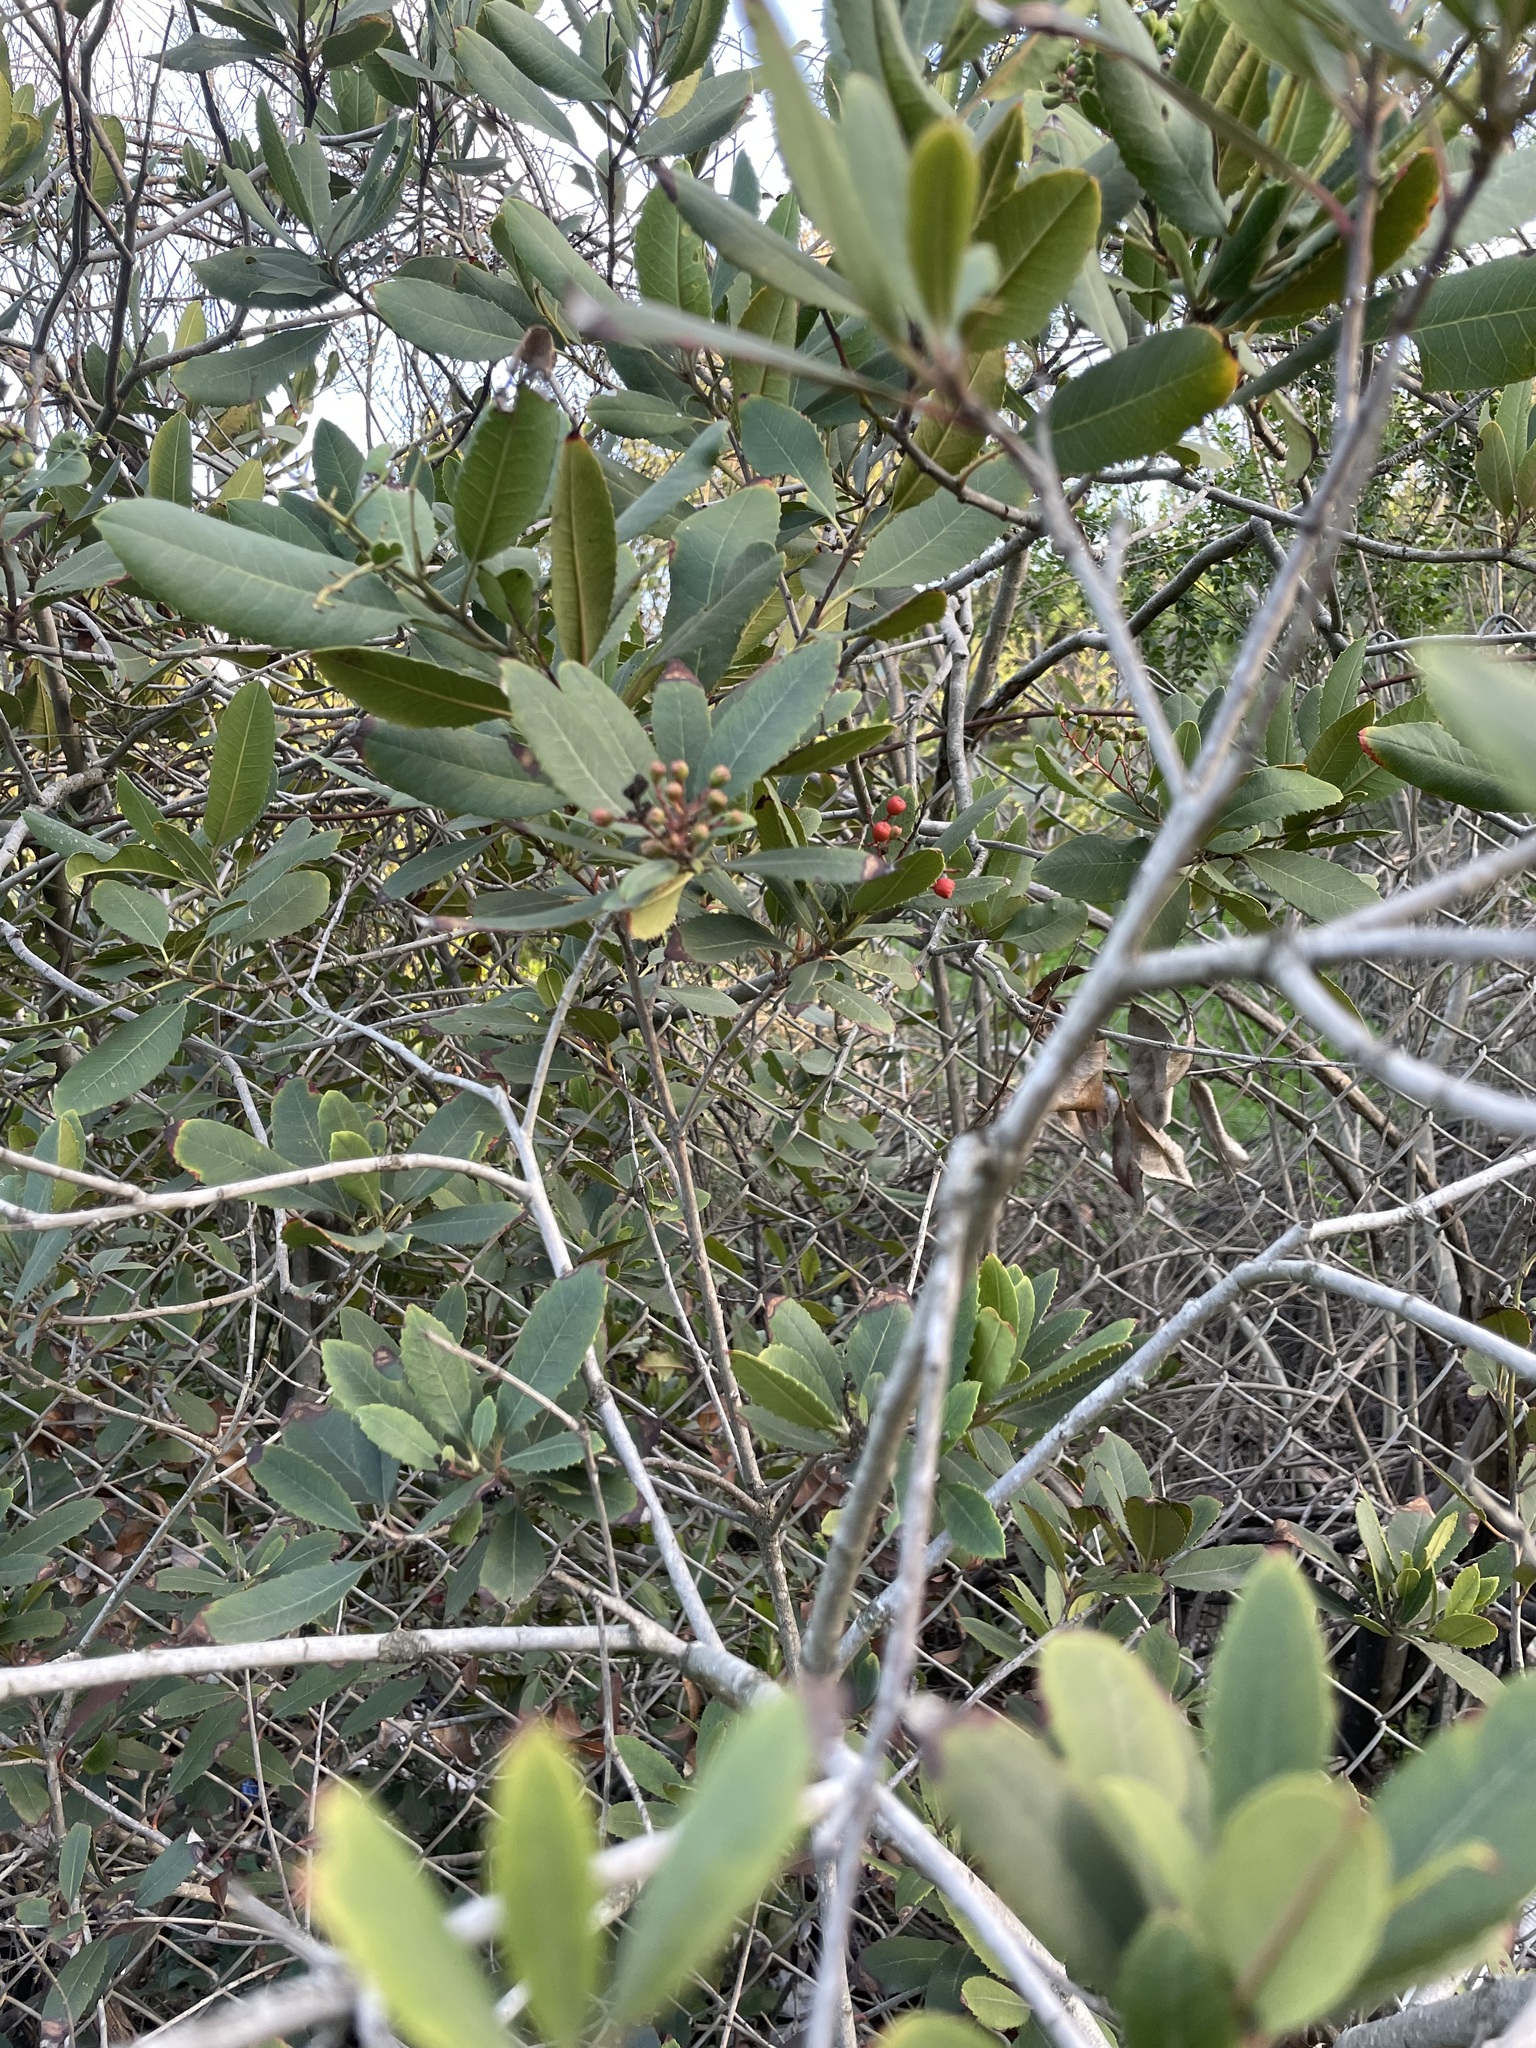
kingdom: Plantae
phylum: Tracheophyta
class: Magnoliopsida
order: Rosales
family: Rosaceae
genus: Heteromeles
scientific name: Heteromeles arbutifolia
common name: California-holly
